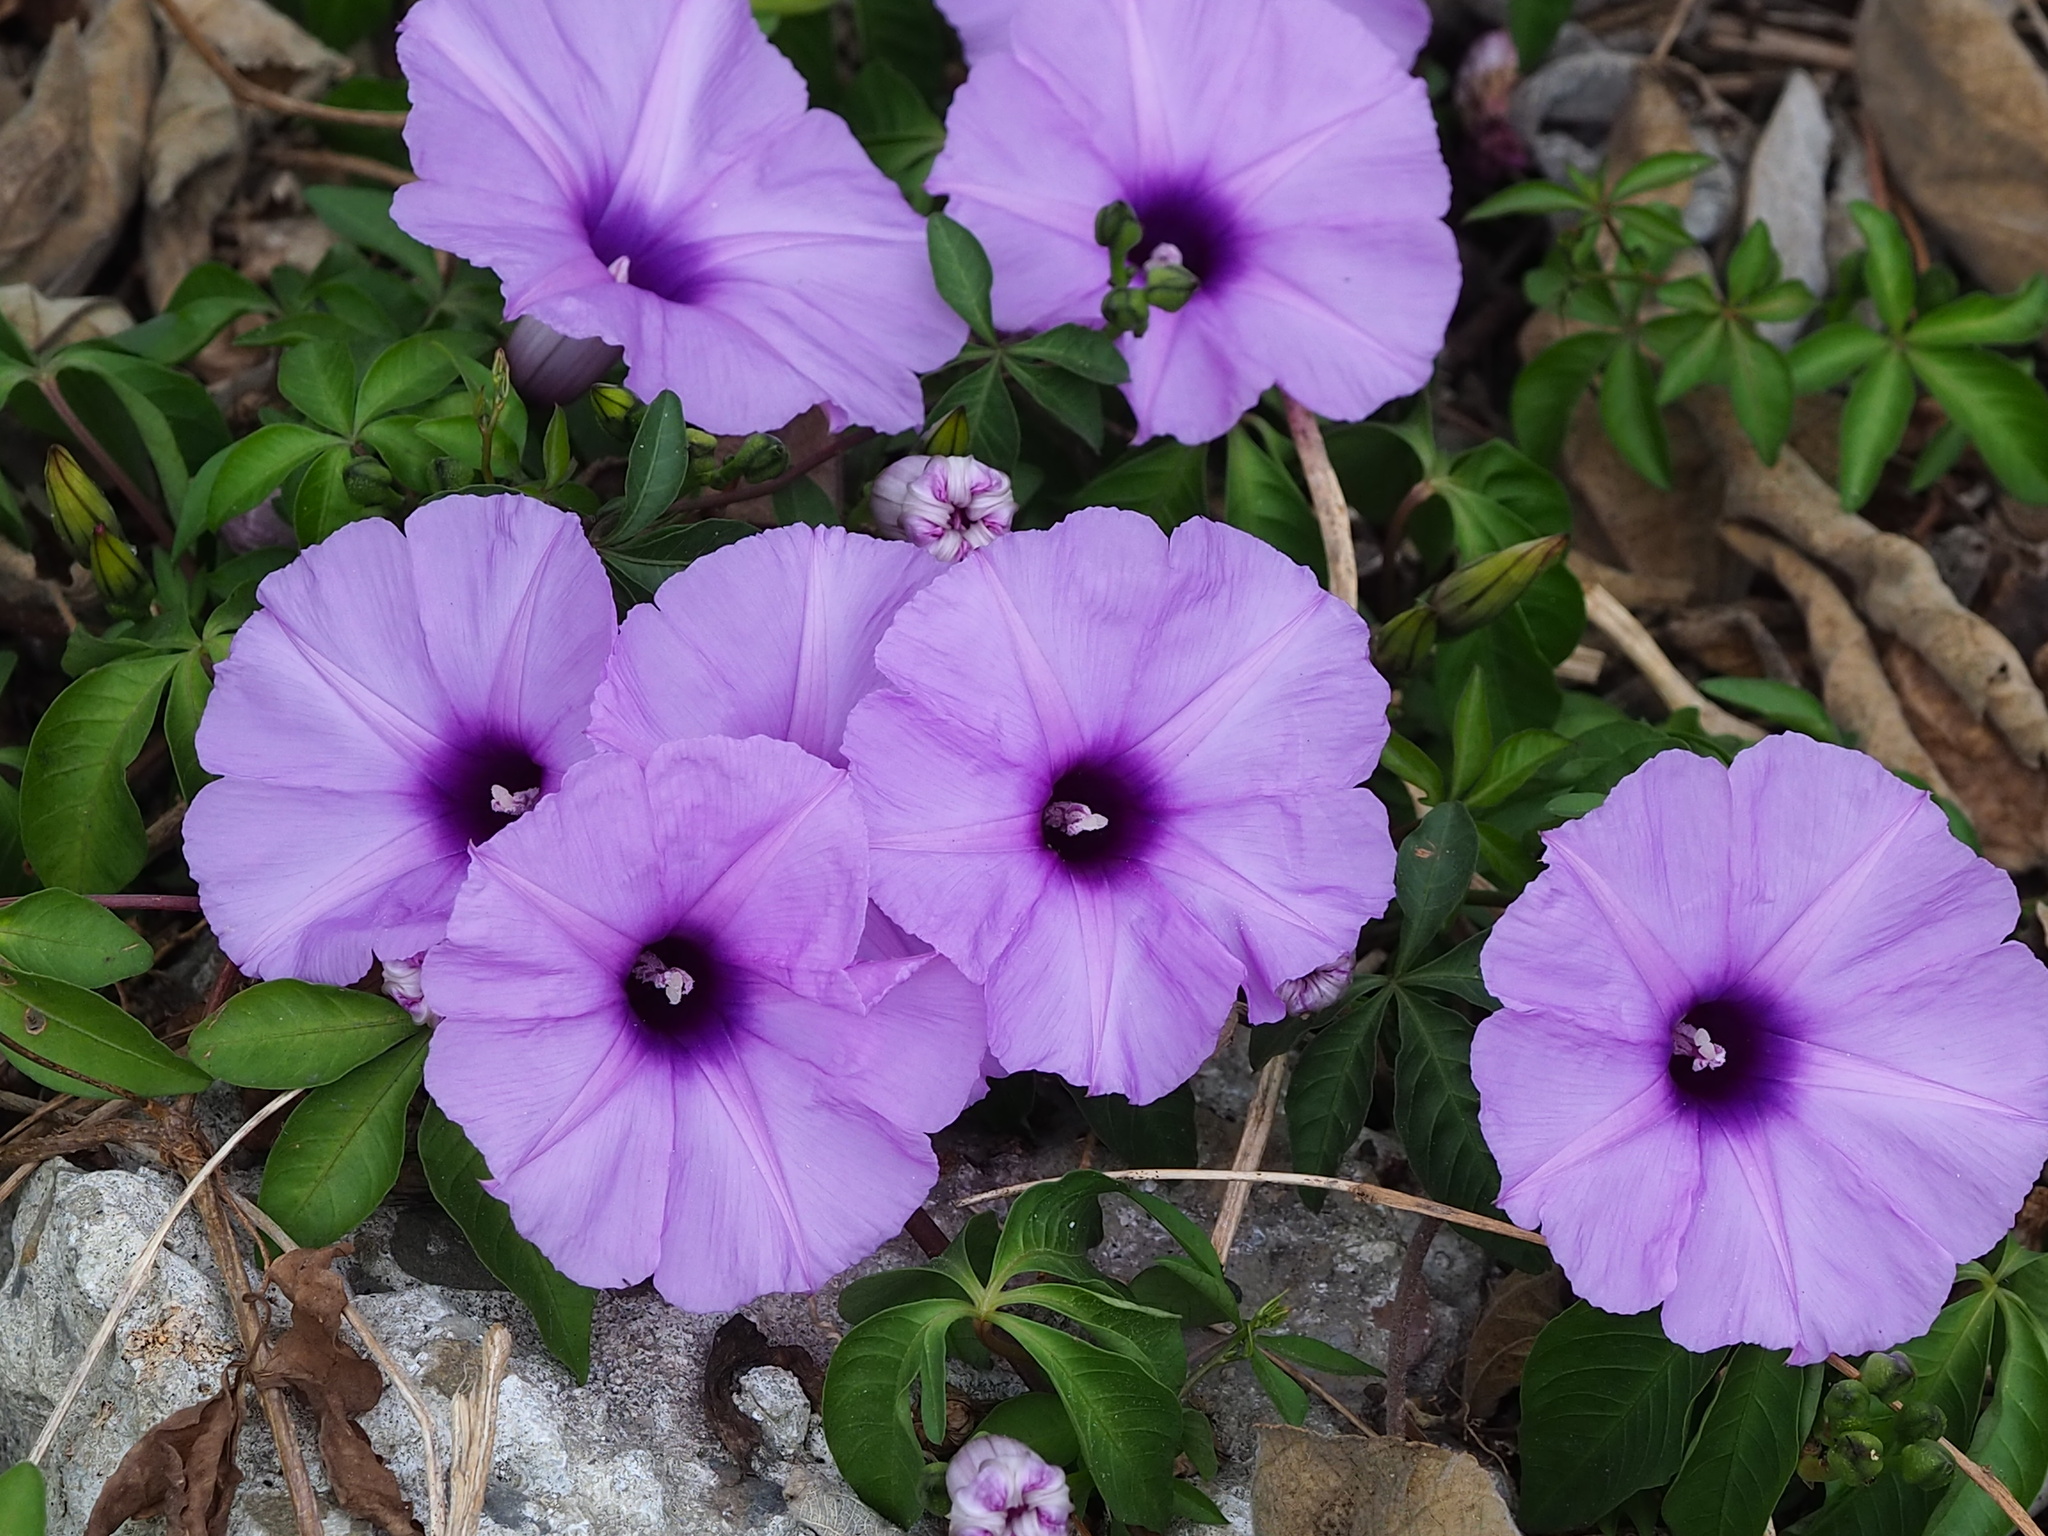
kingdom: Plantae
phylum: Tracheophyta
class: Magnoliopsida
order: Solanales
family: Convolvulaceae
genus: Ipomoea
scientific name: Ipomoea cairica
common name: Mile a minute vine
